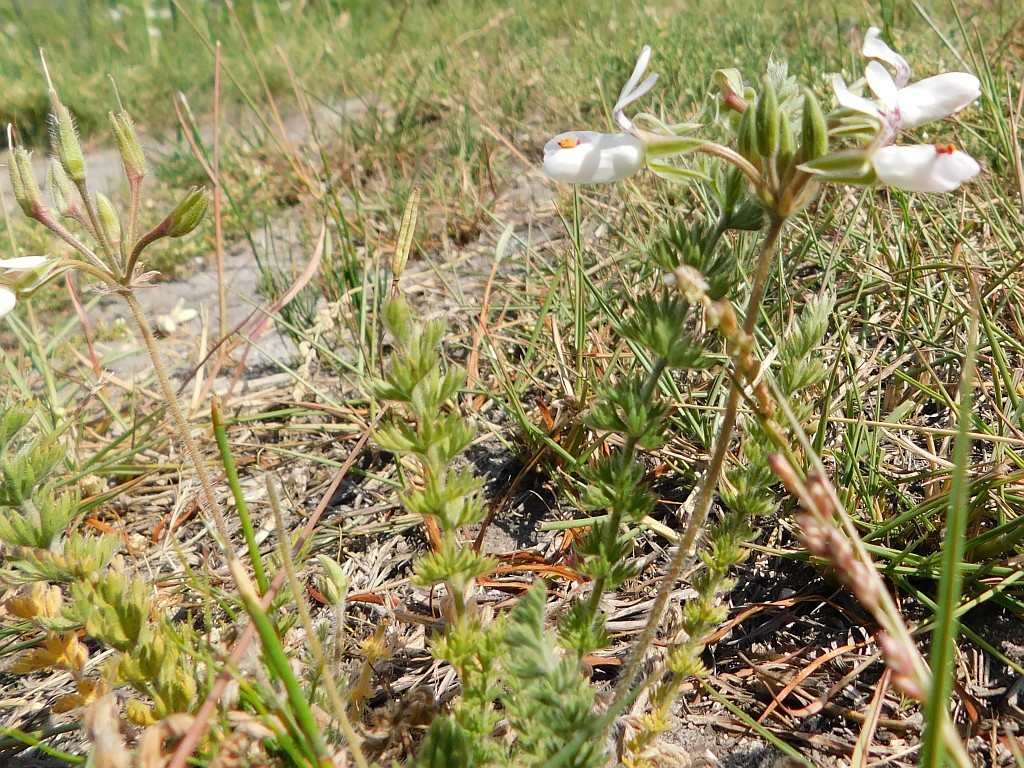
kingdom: Plantae
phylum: Tracheophyta
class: Magnoliopsida
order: Geraniales
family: Geraniaceae
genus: Pelargonium
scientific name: Pelargonium rapaceum
